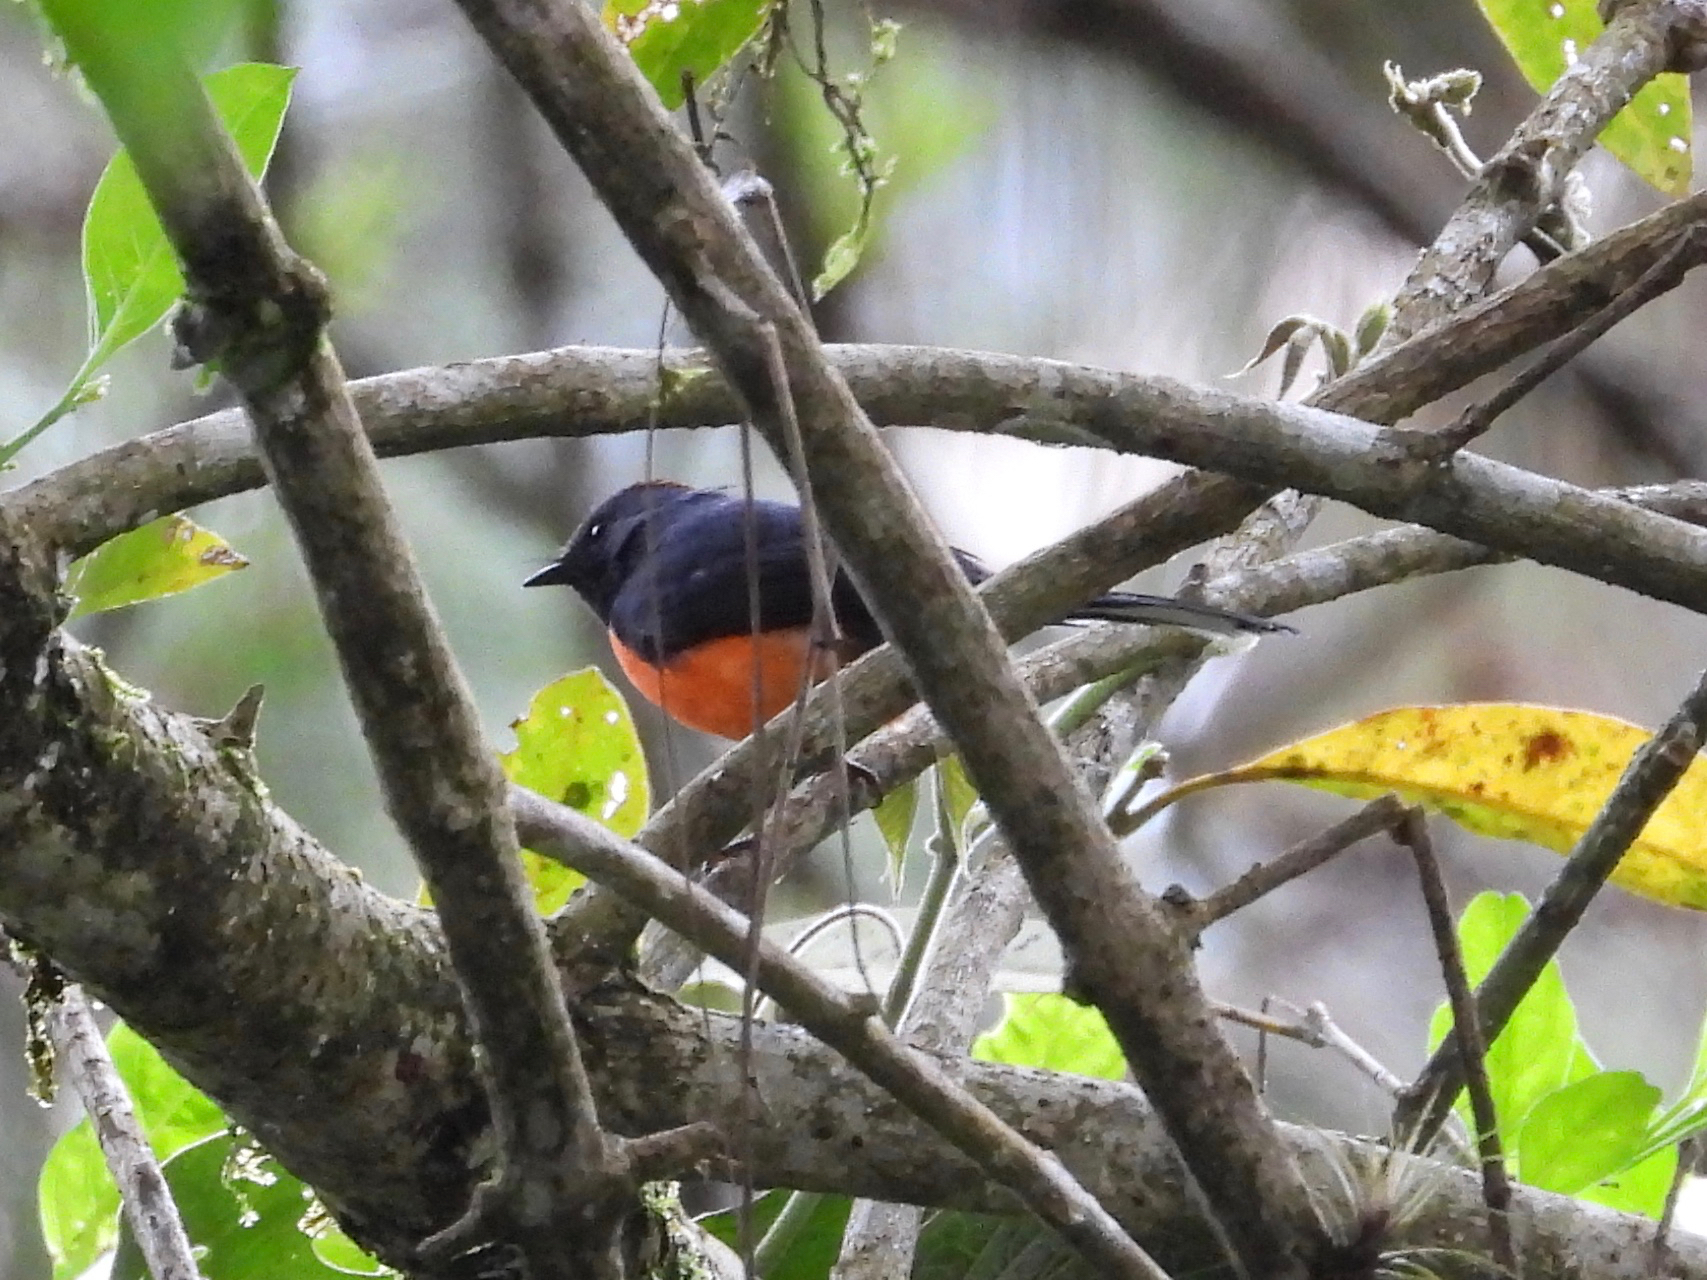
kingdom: Animalia
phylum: Chordata
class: Aves
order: Passeriformes
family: Parulidae
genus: Myioborus
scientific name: Myioborus miniatus
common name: Slate-throated redstart
